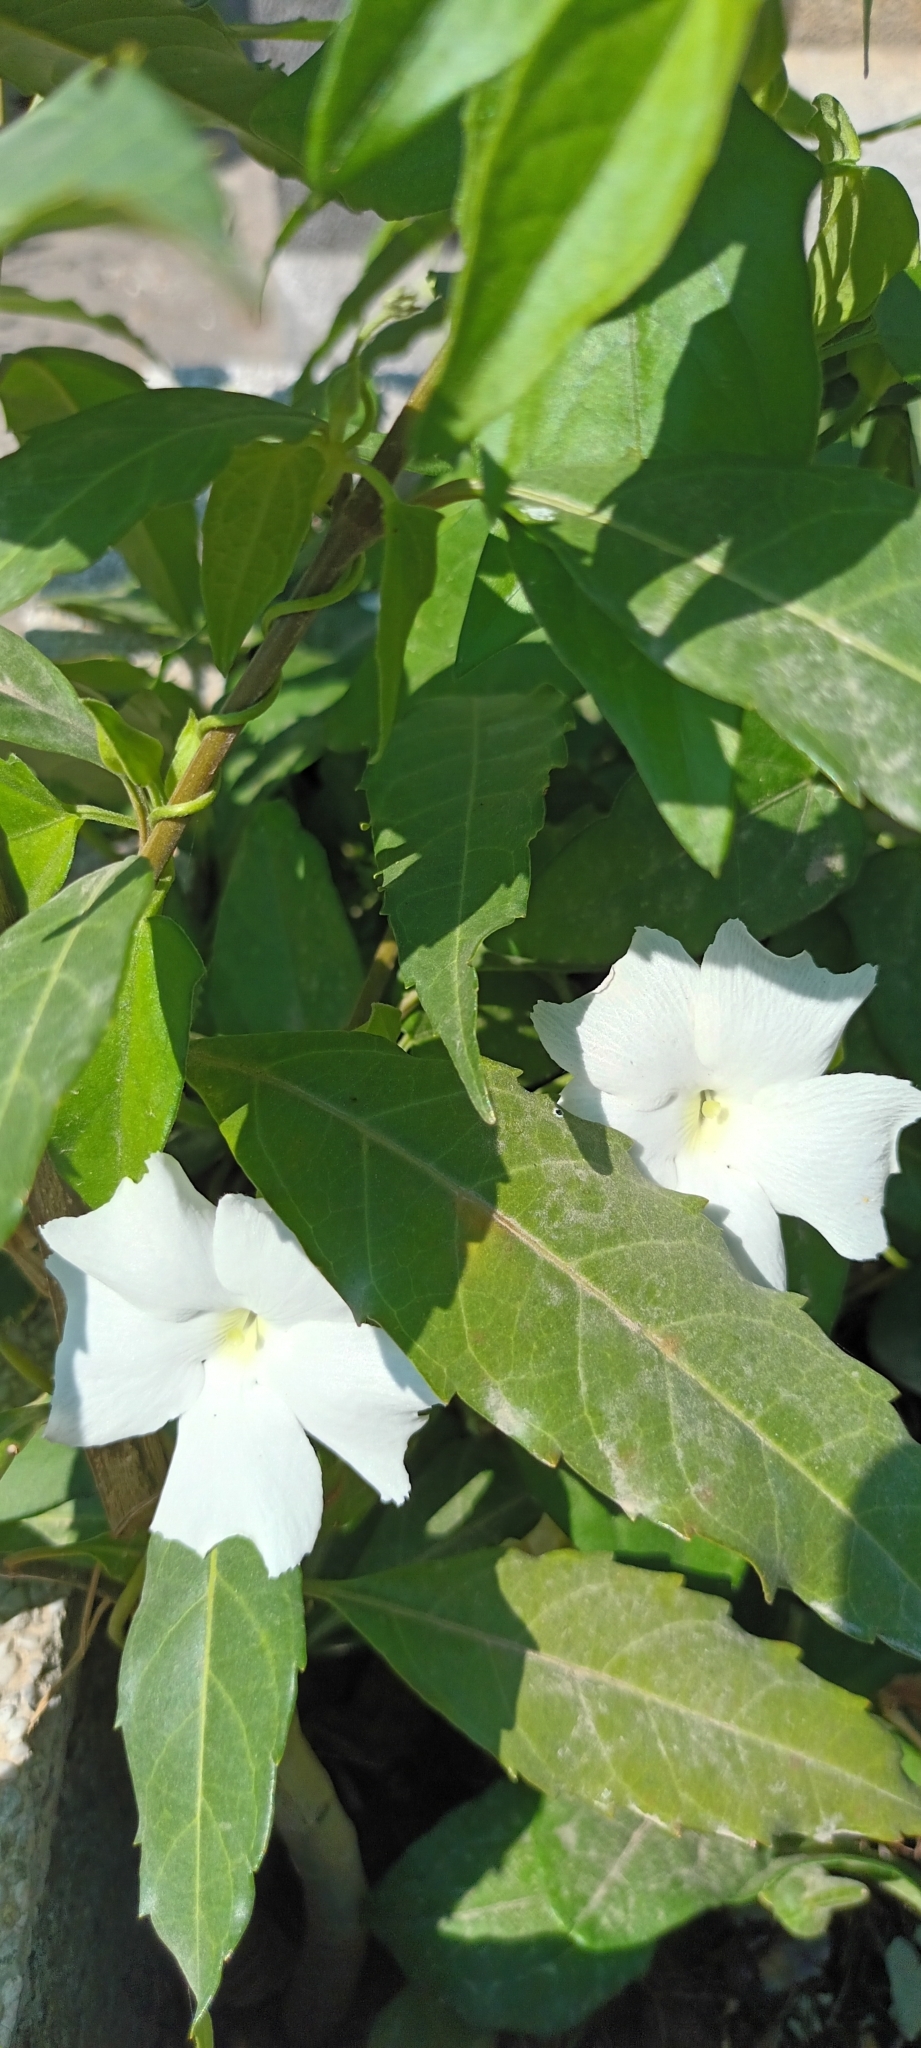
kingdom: Plantae
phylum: Tracheophyta
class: Magnoliopsida
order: Lamiales
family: Acanthaceae
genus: Thunbergia
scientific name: Thunbergia fragrans
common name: Whitelady
